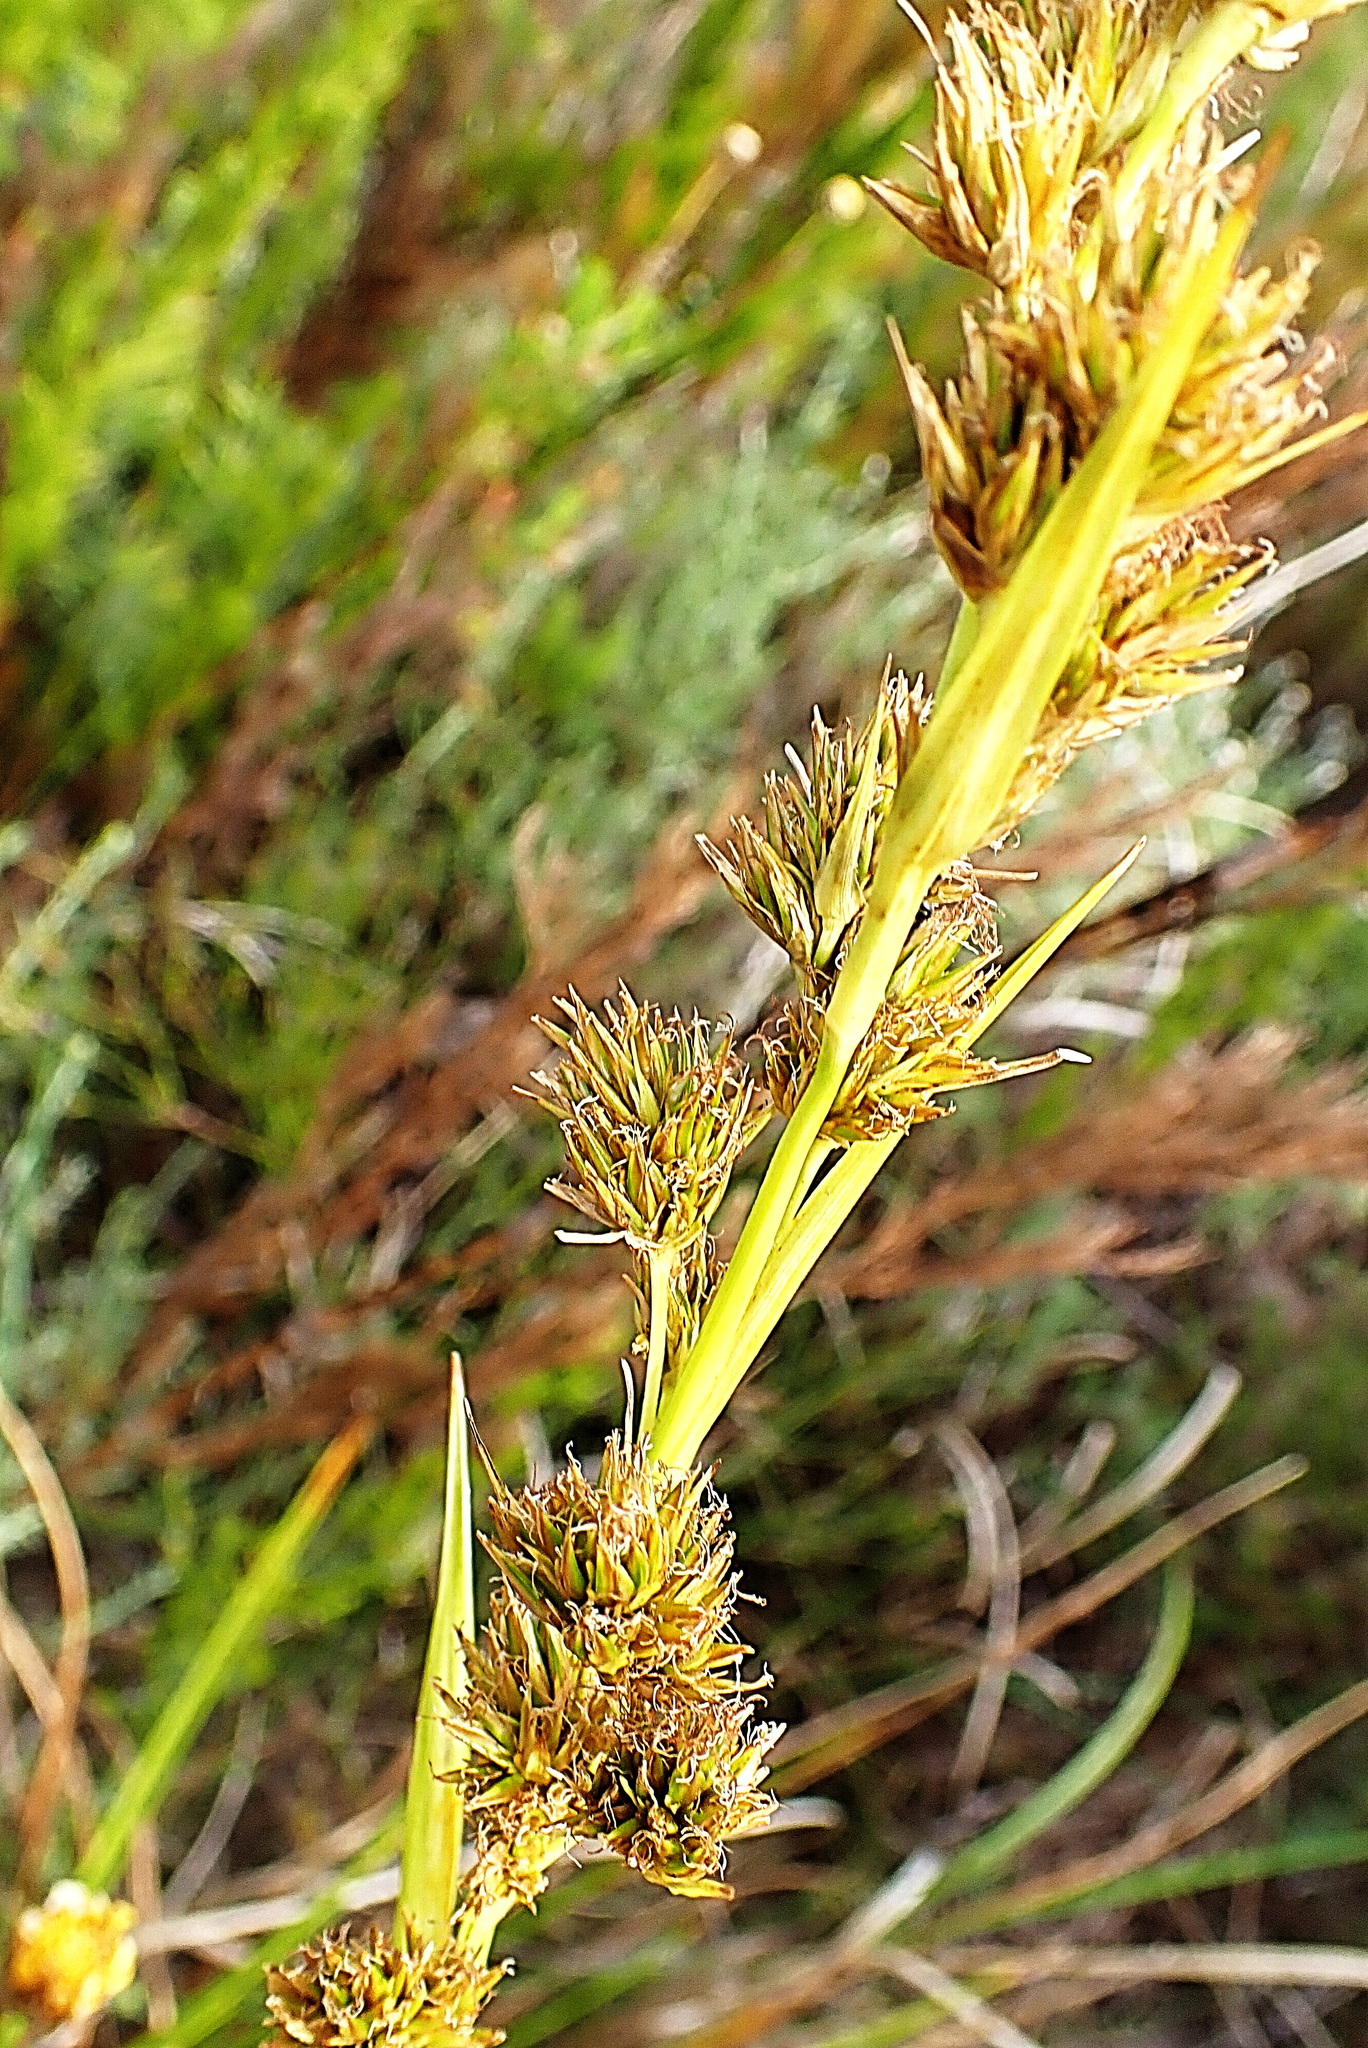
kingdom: Plantae
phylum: Tracheophyta
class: Liliopsida
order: Poales
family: Cyperaceae
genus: Carpha
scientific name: Carpha glomerata
